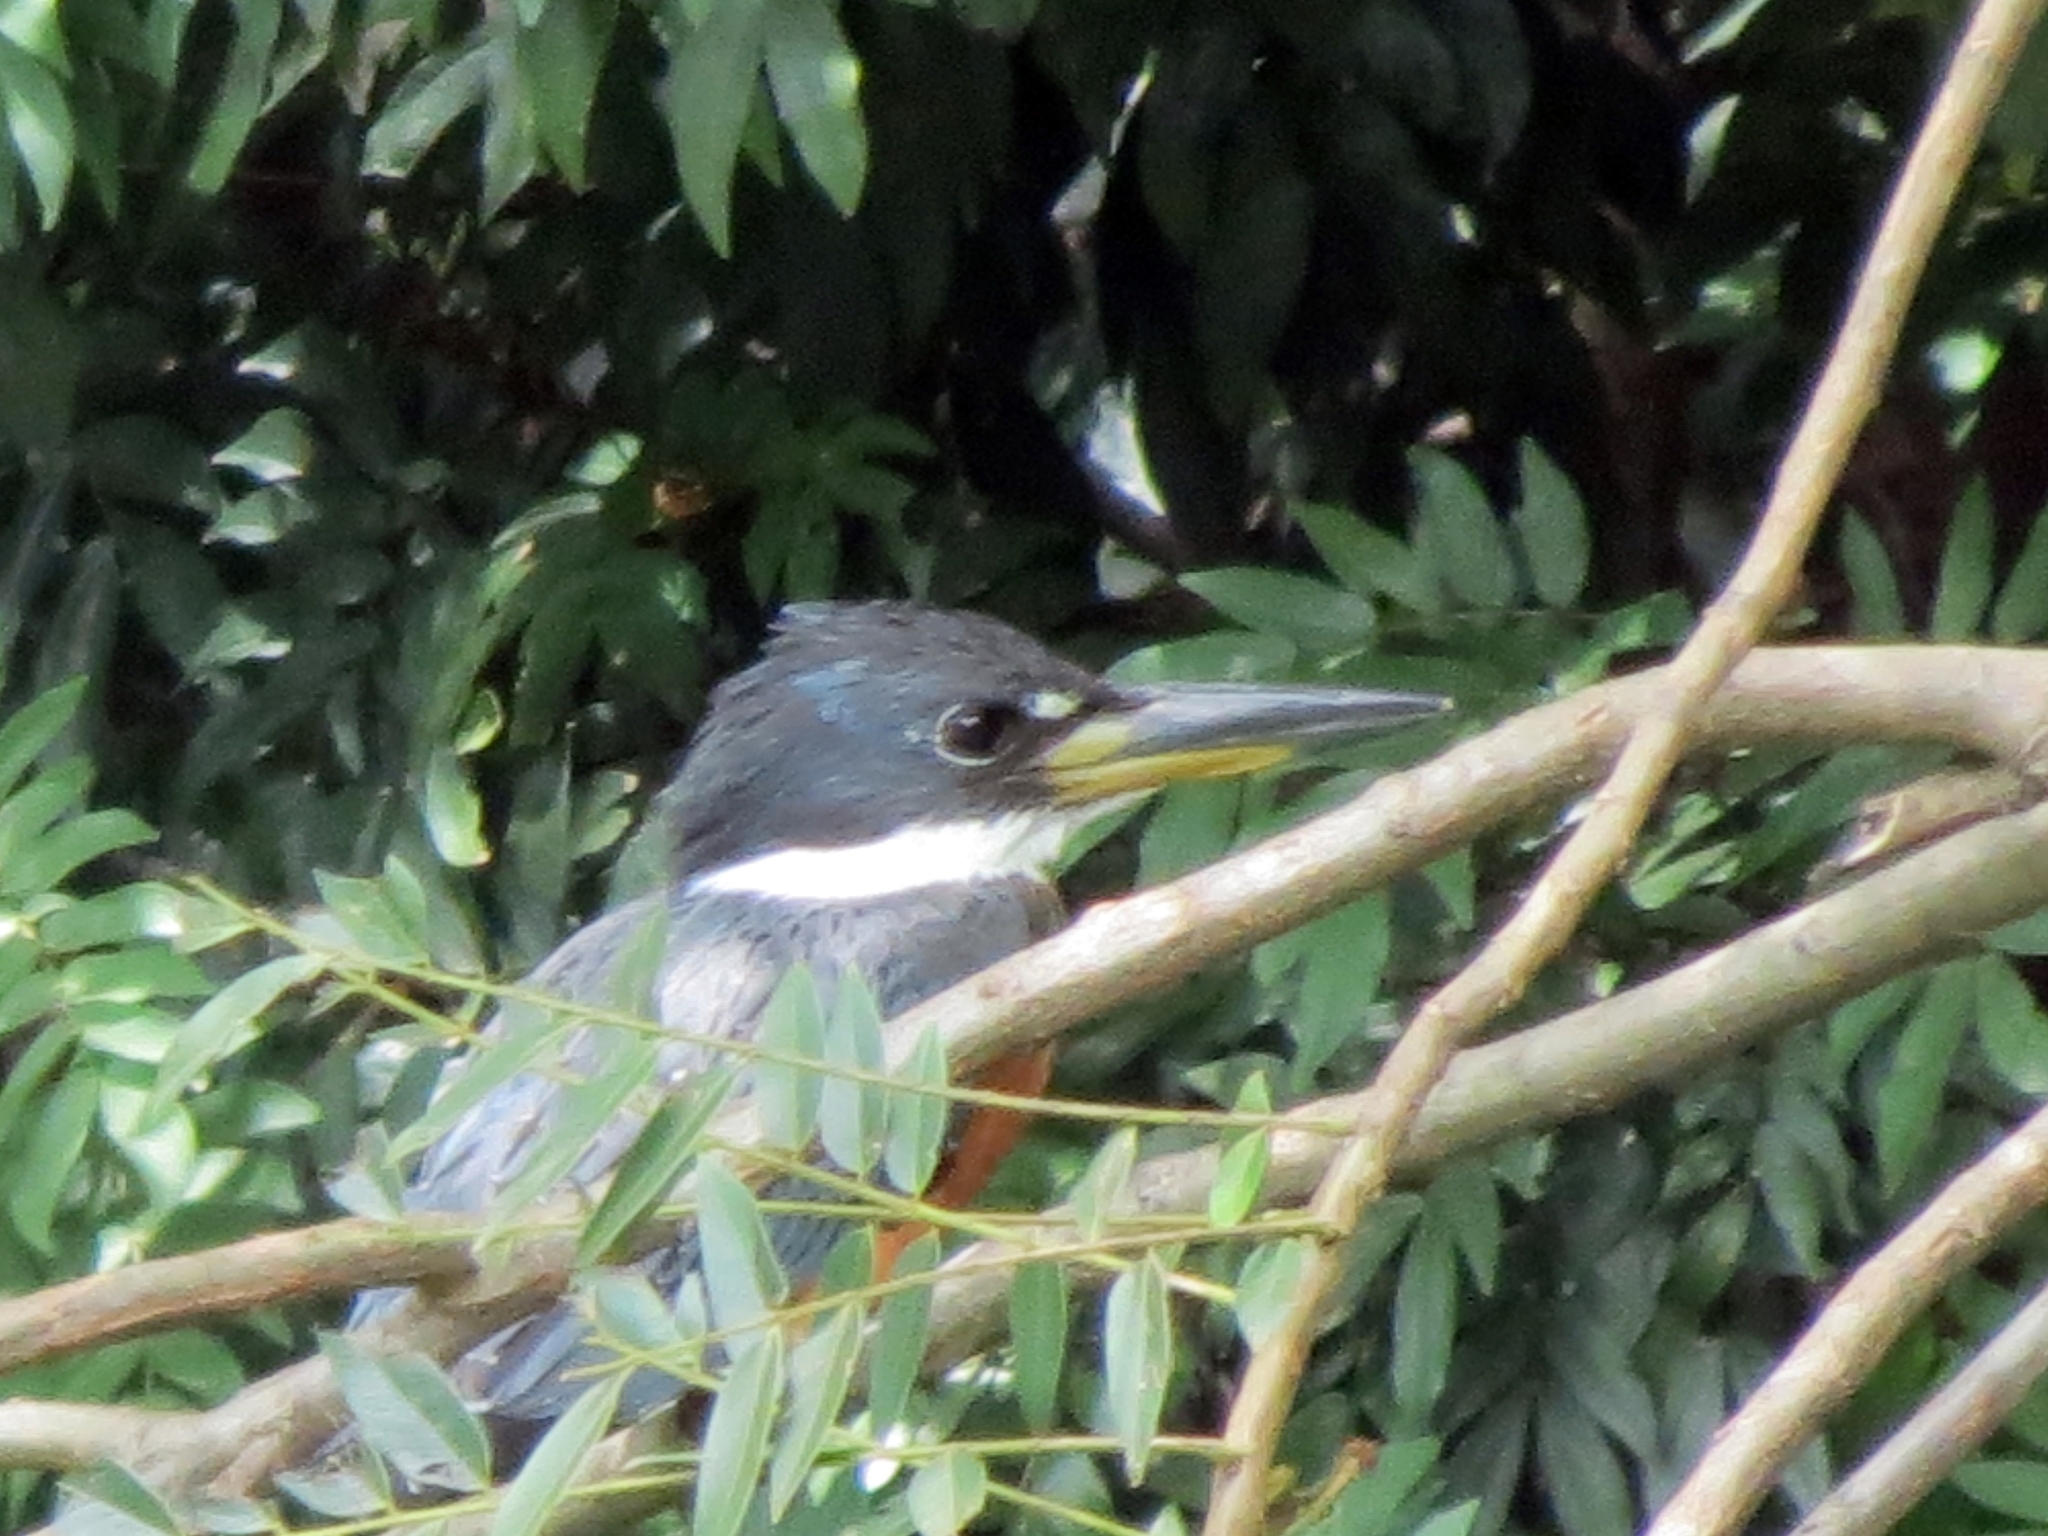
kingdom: Animalia
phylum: Chordata
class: Aves
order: Coraciiformes
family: Alcedinidae
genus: Megaceryle
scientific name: Megaceryle torquata
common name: Ringed kingfisher
